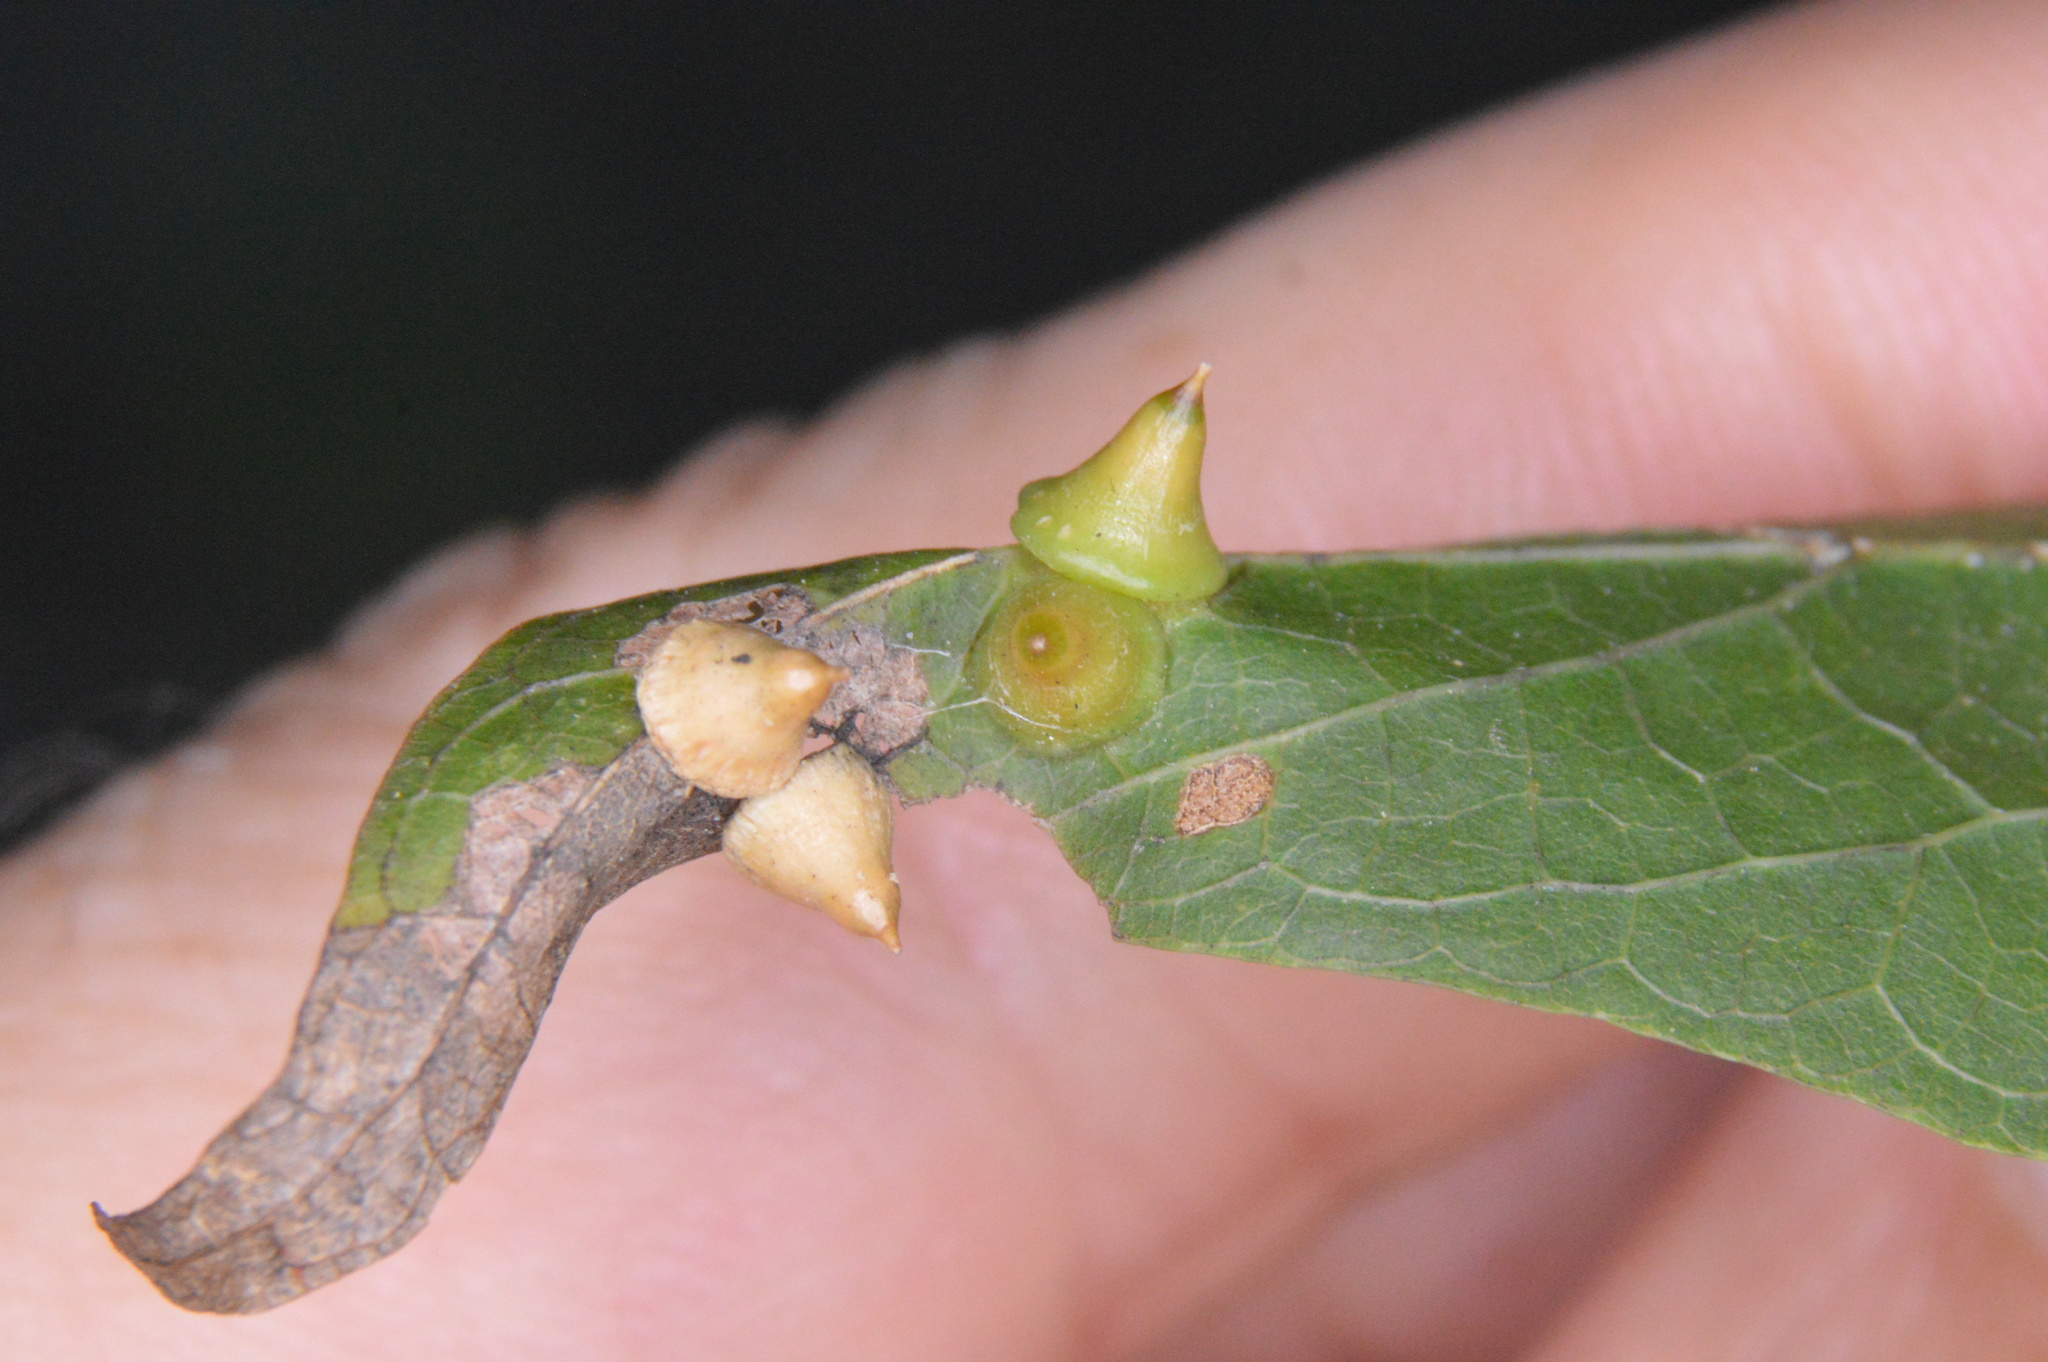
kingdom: Animalia
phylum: Arthropoda
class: Insecta
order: Diptera
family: Cecidomyiidae
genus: Celticecis
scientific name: Celticecis spiniformis
